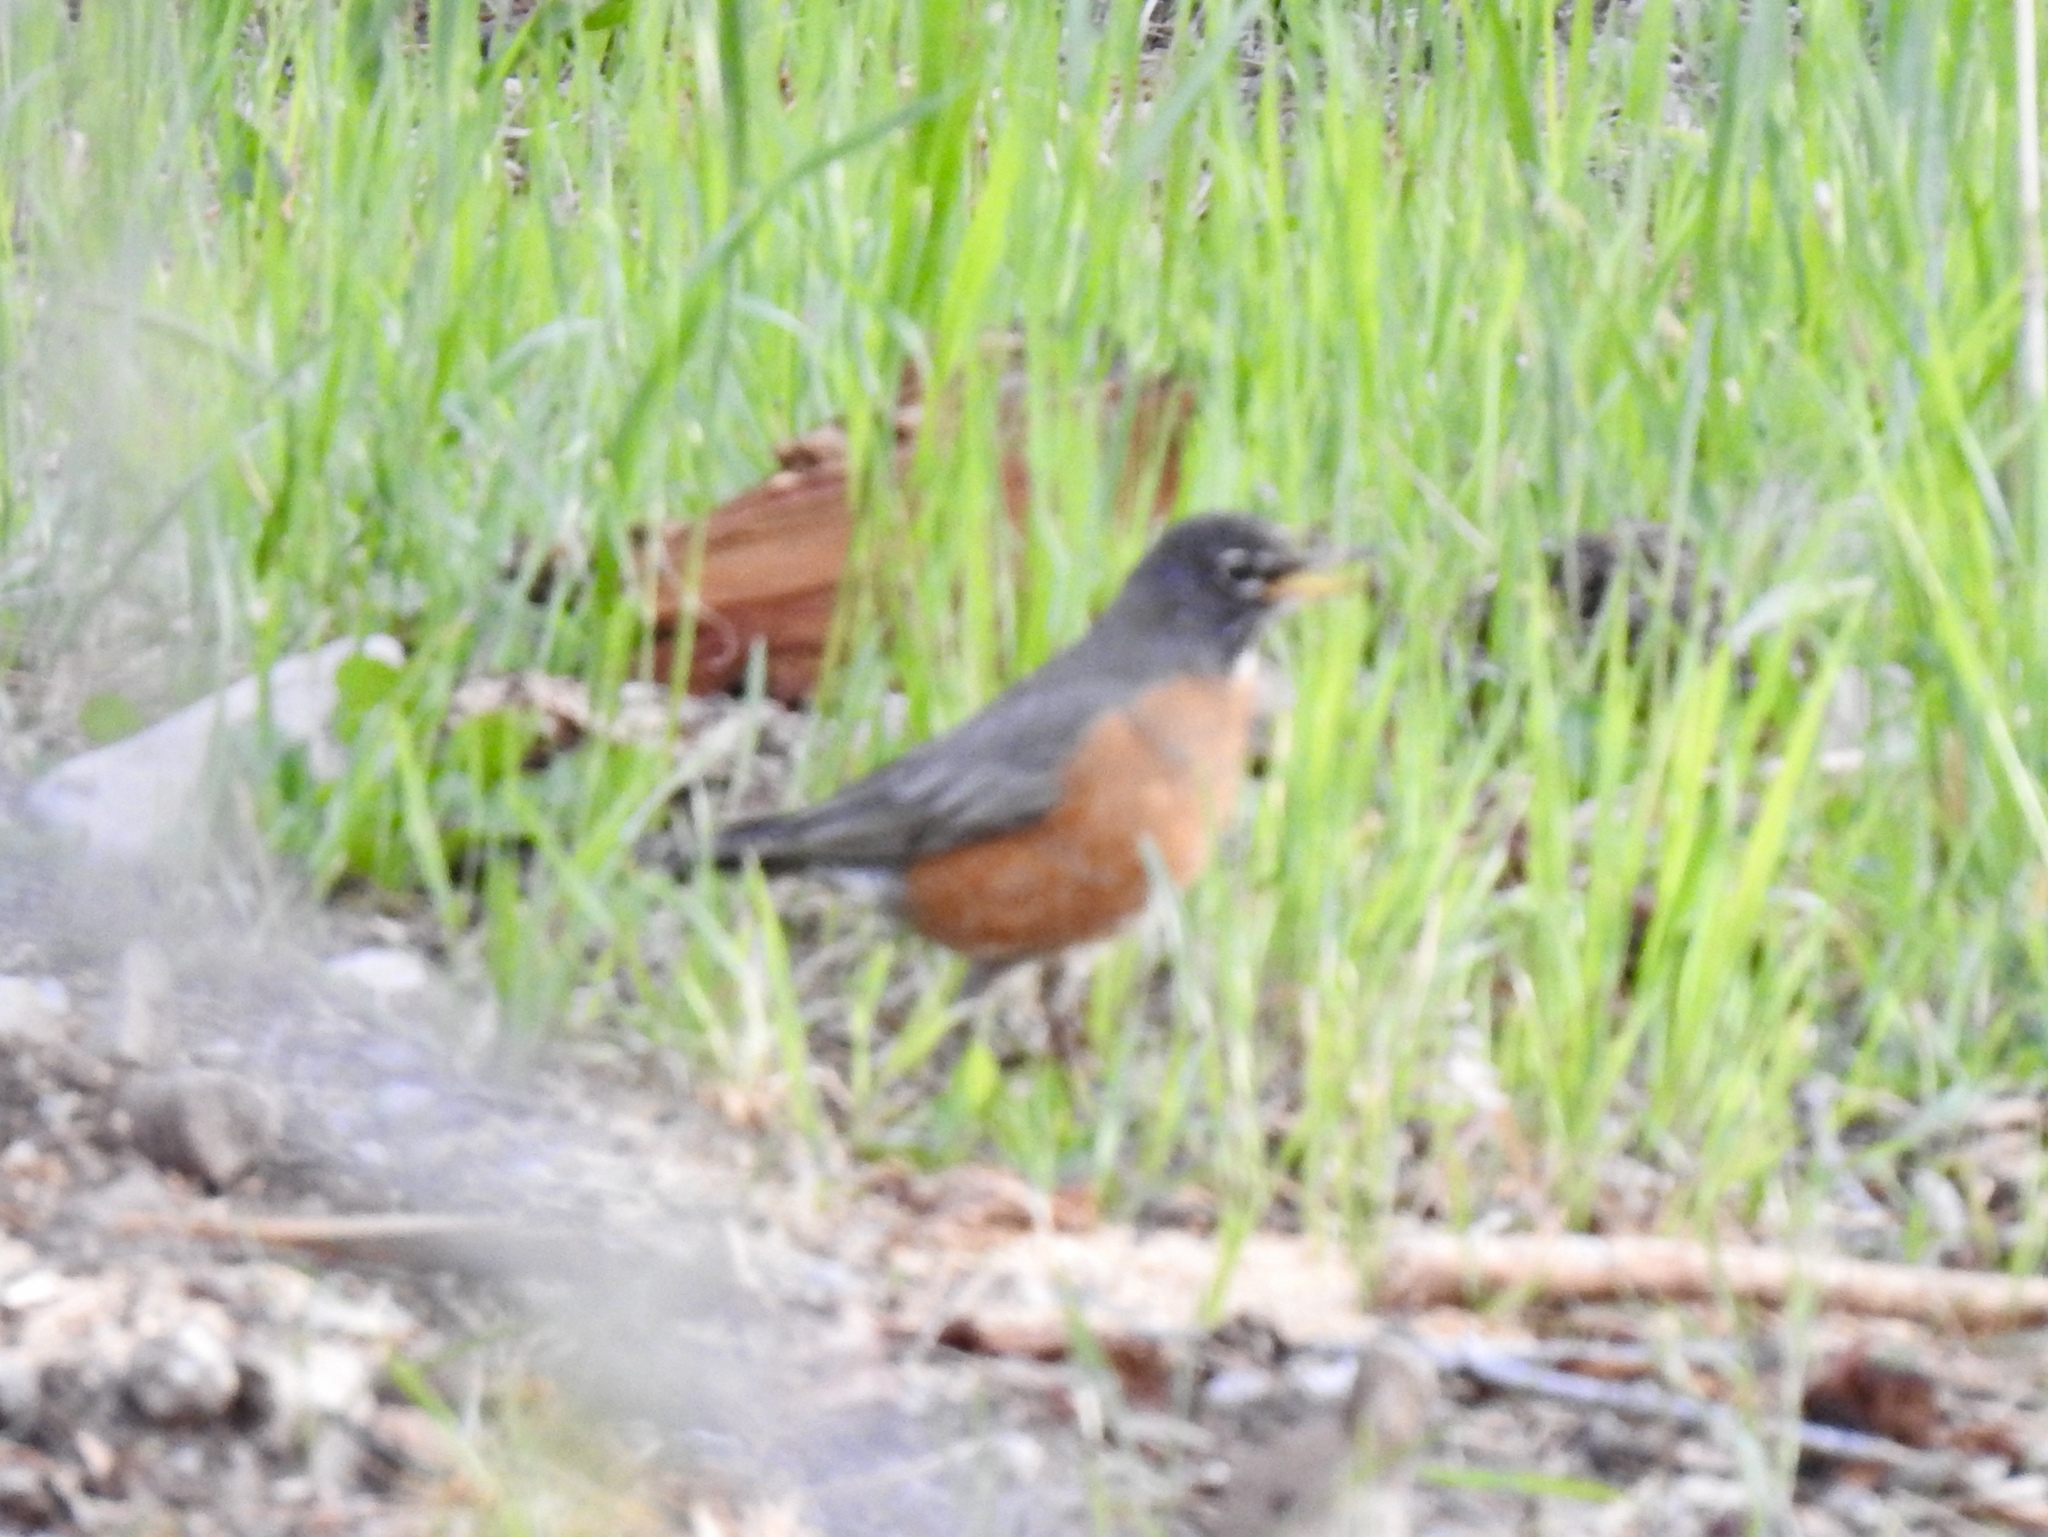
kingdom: Animalia
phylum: Chordata
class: Aves
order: Passeriformes
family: Turdidae
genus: Turdus
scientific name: Turdus migratorius
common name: American robin
